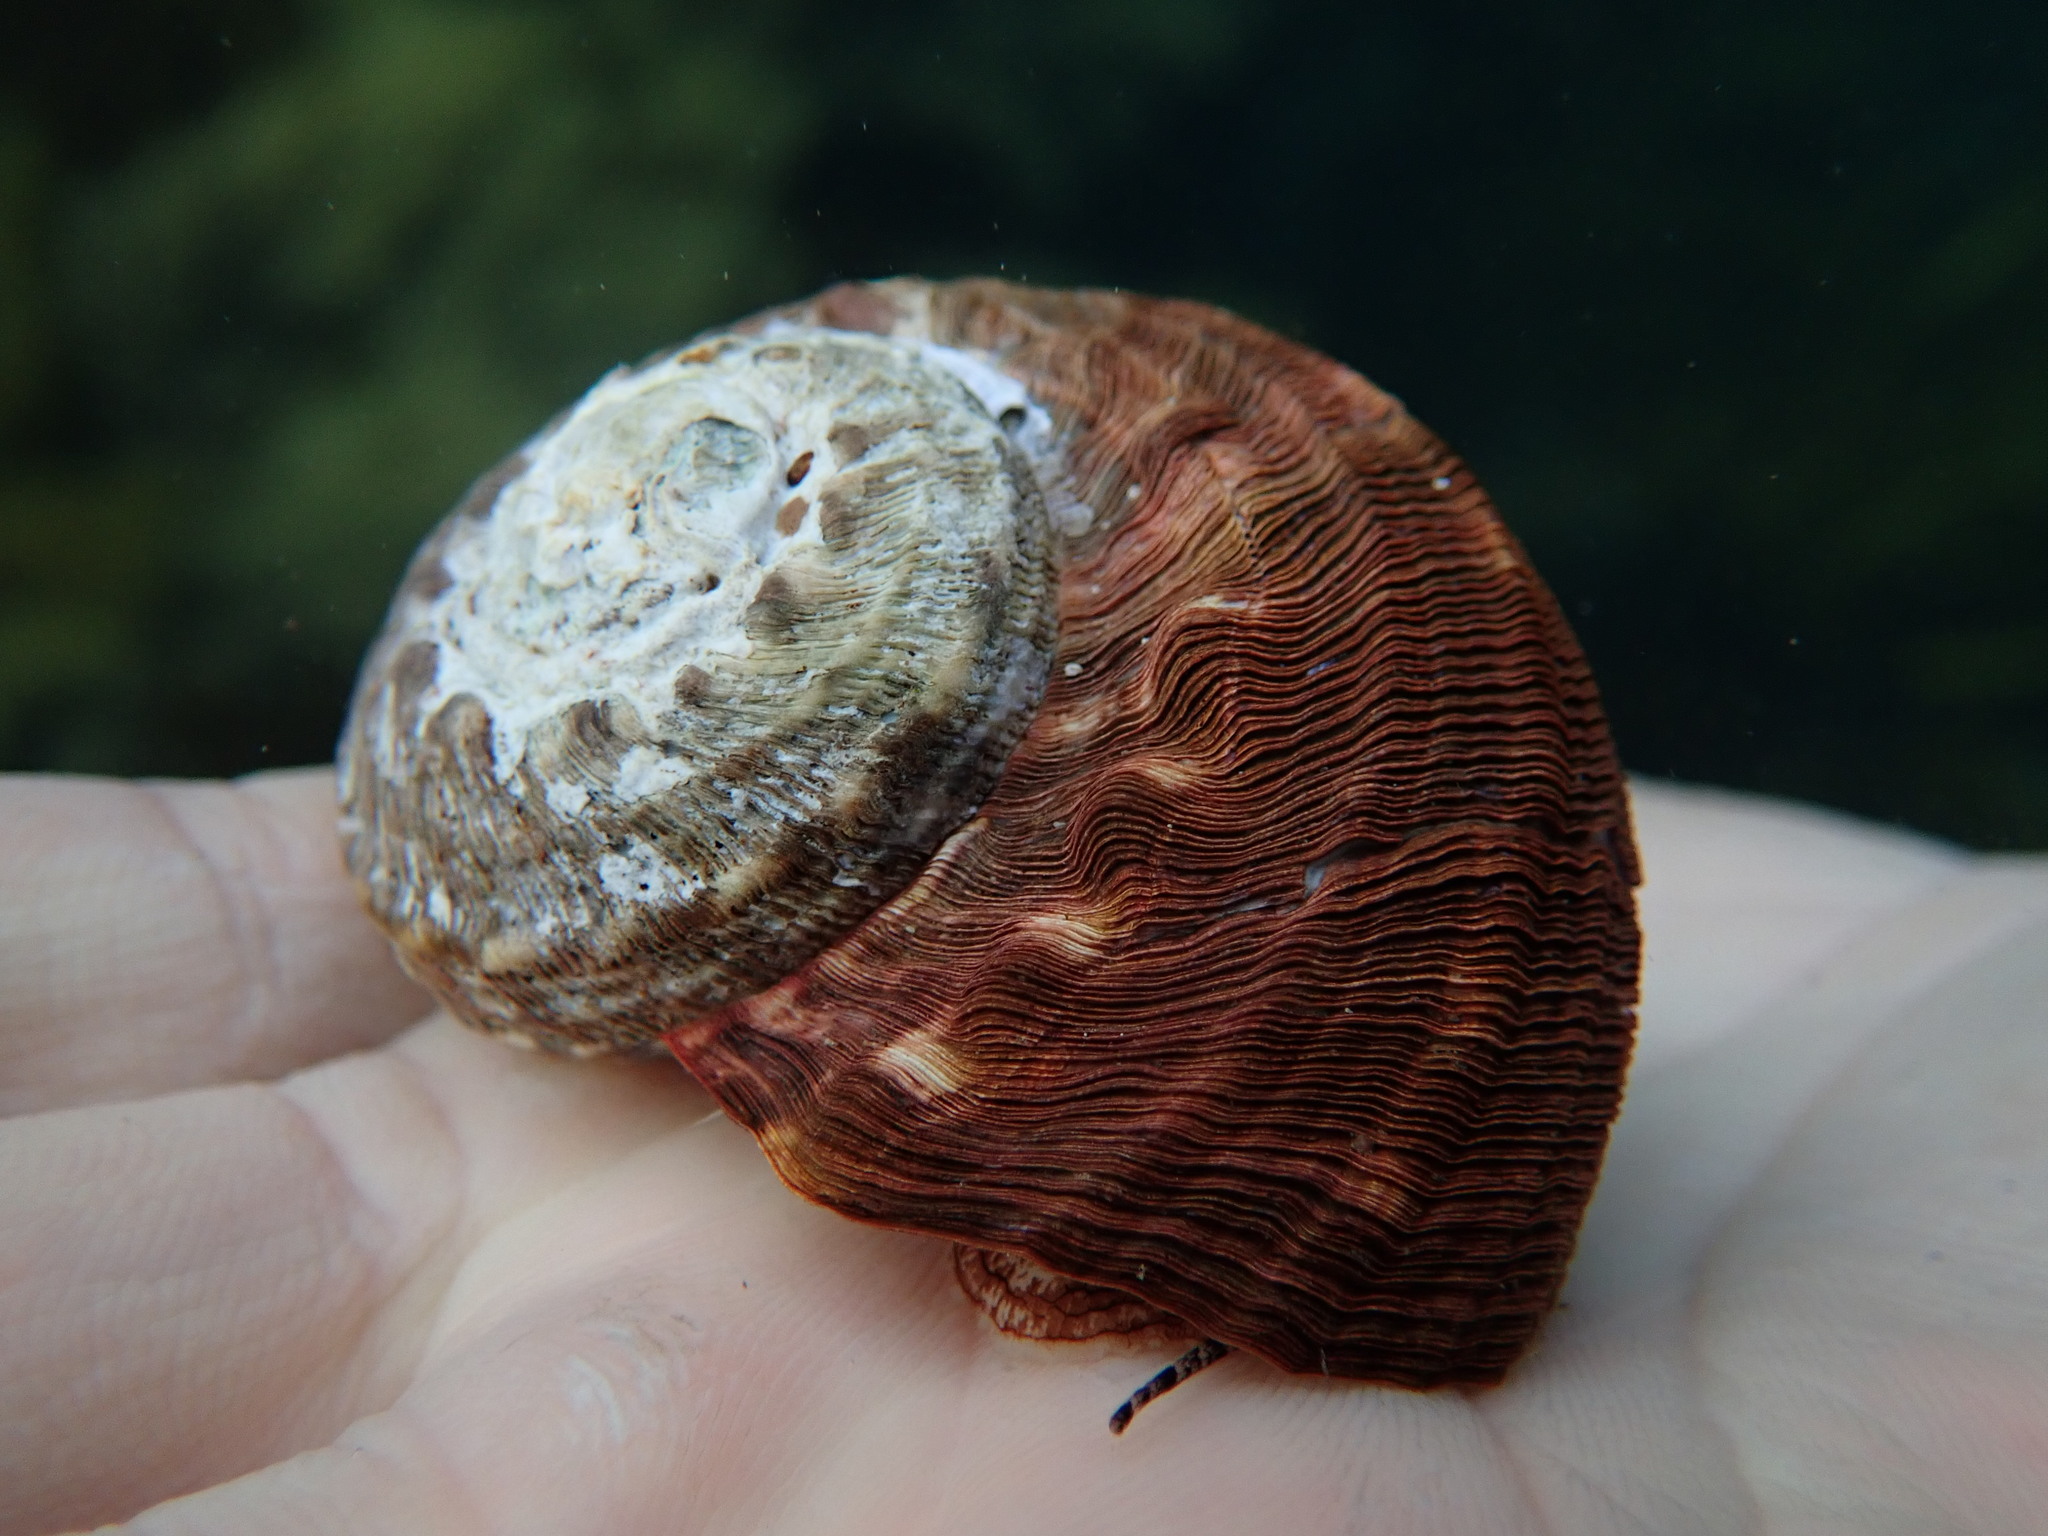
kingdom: Animalia
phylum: Mollusca
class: Gastropoda
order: Trochida
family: Turbinidae
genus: Lunella
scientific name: Lunella torquata
